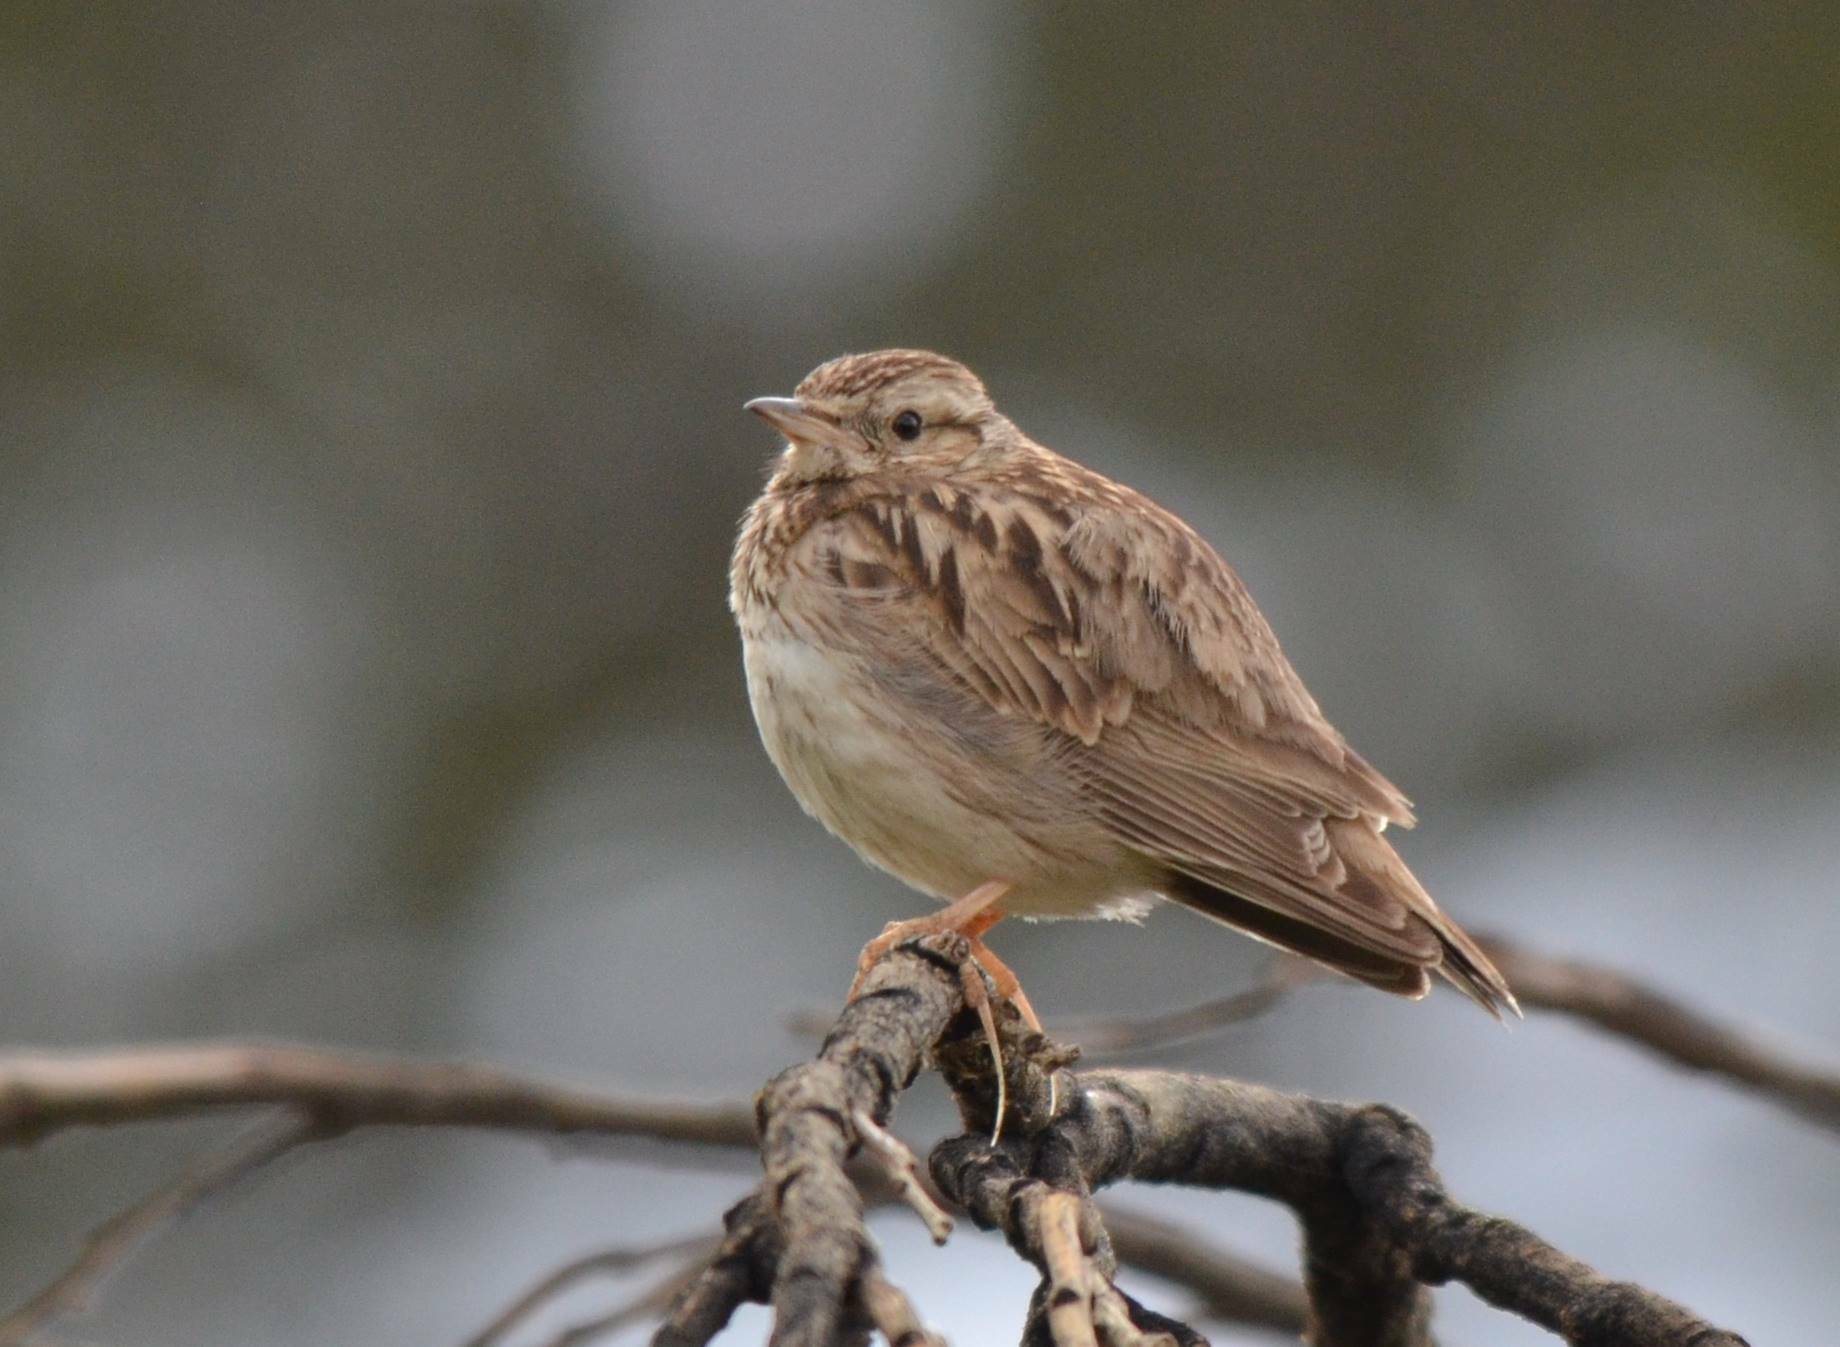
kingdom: Animalia
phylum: Chordata
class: Aves
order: Passeriformes
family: Alaudidae
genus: Lullula
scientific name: Lullula arborea
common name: Woodlark
